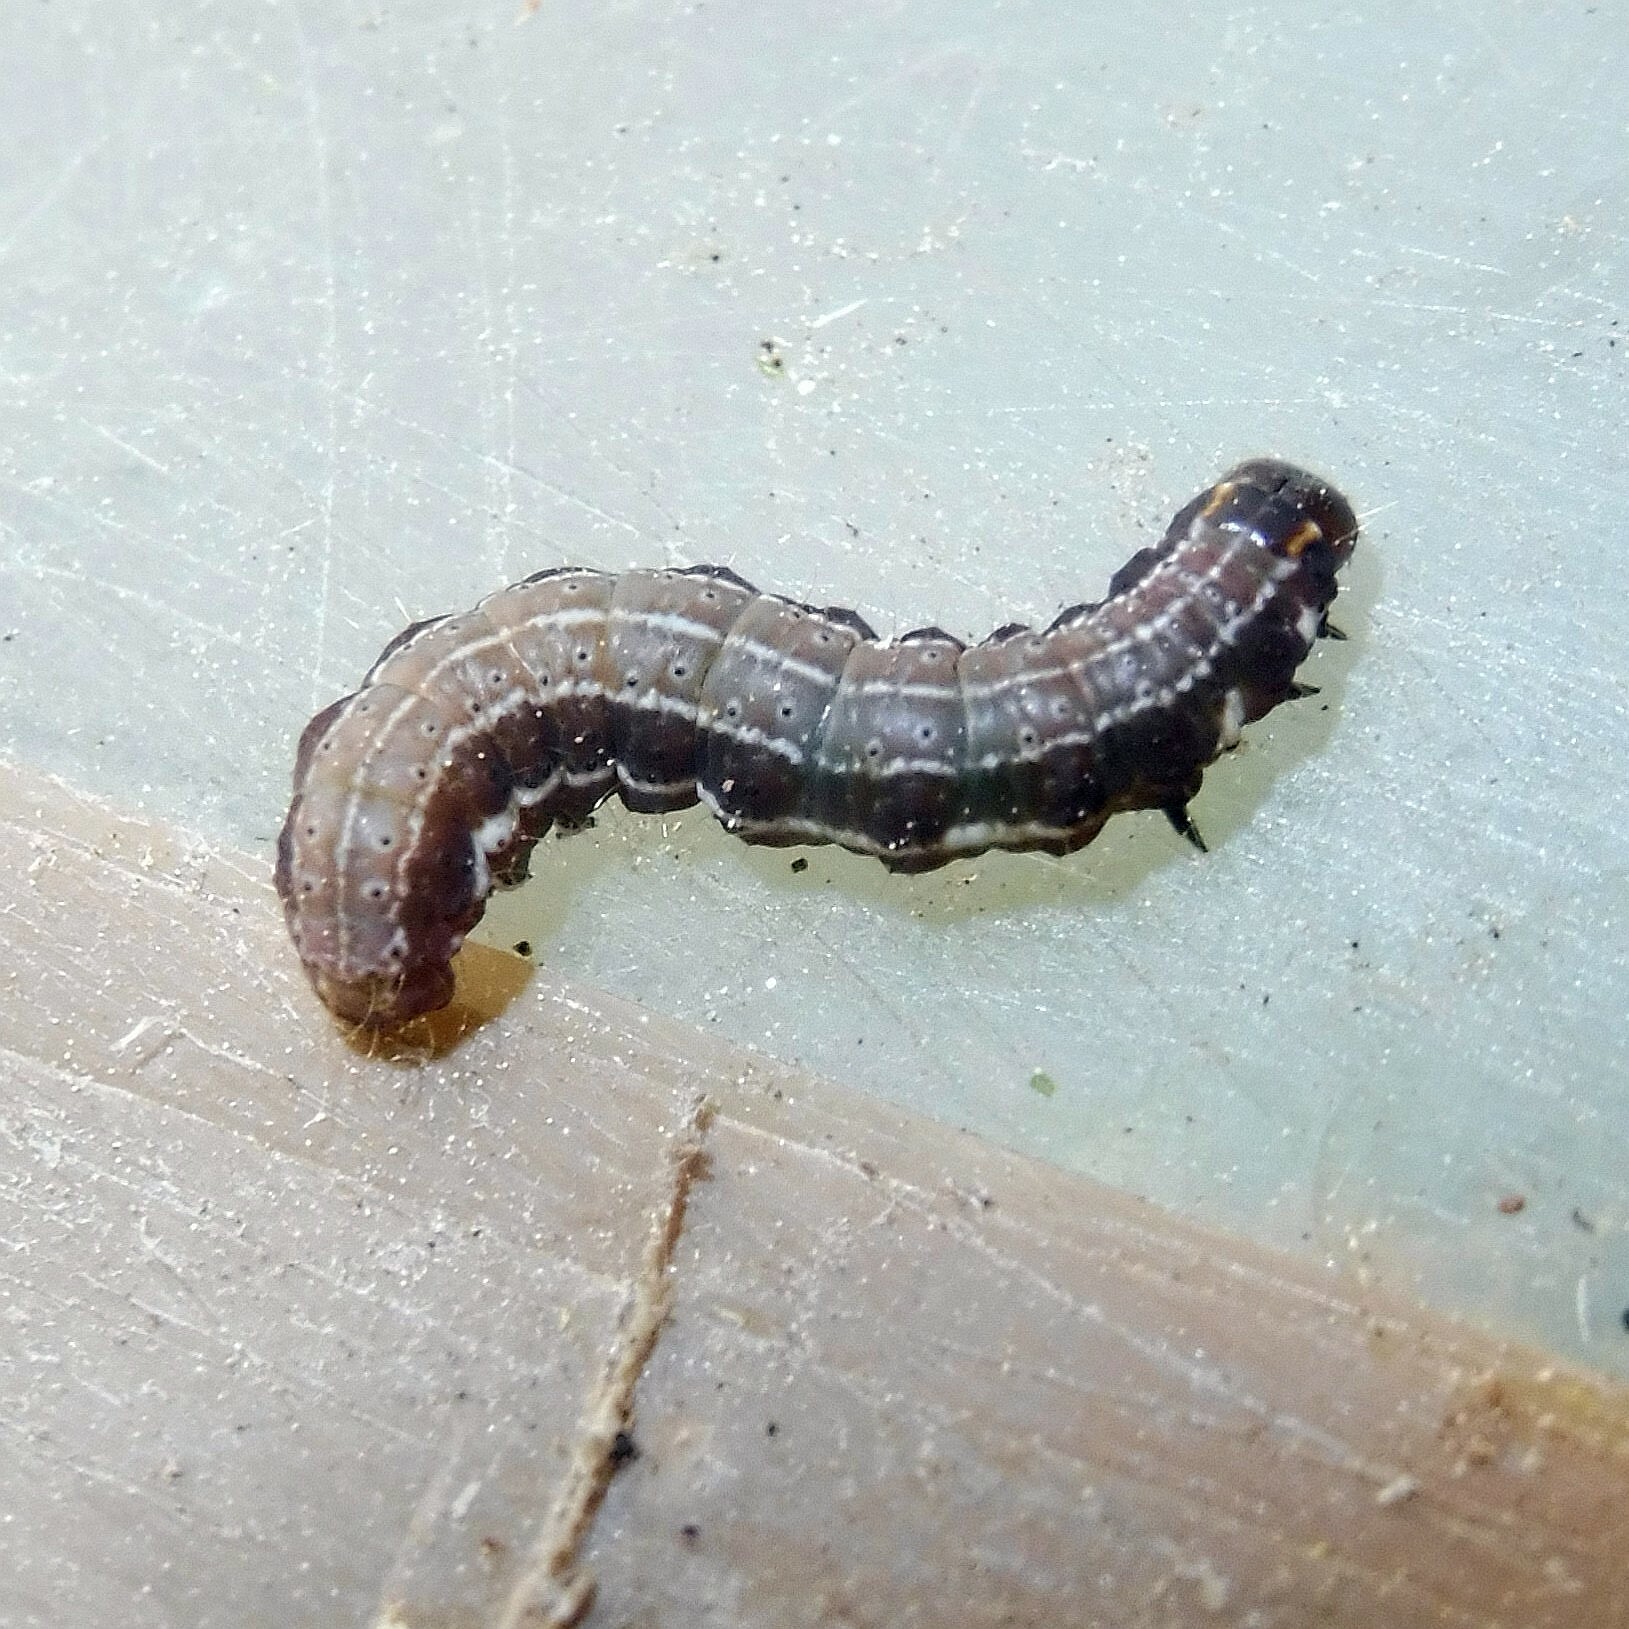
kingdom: Animalia
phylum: Arthropoda
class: Insecta
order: Lepidoptera
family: Noctuidae
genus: Eupsilia
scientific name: Eupsilia transversa
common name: Satellite
